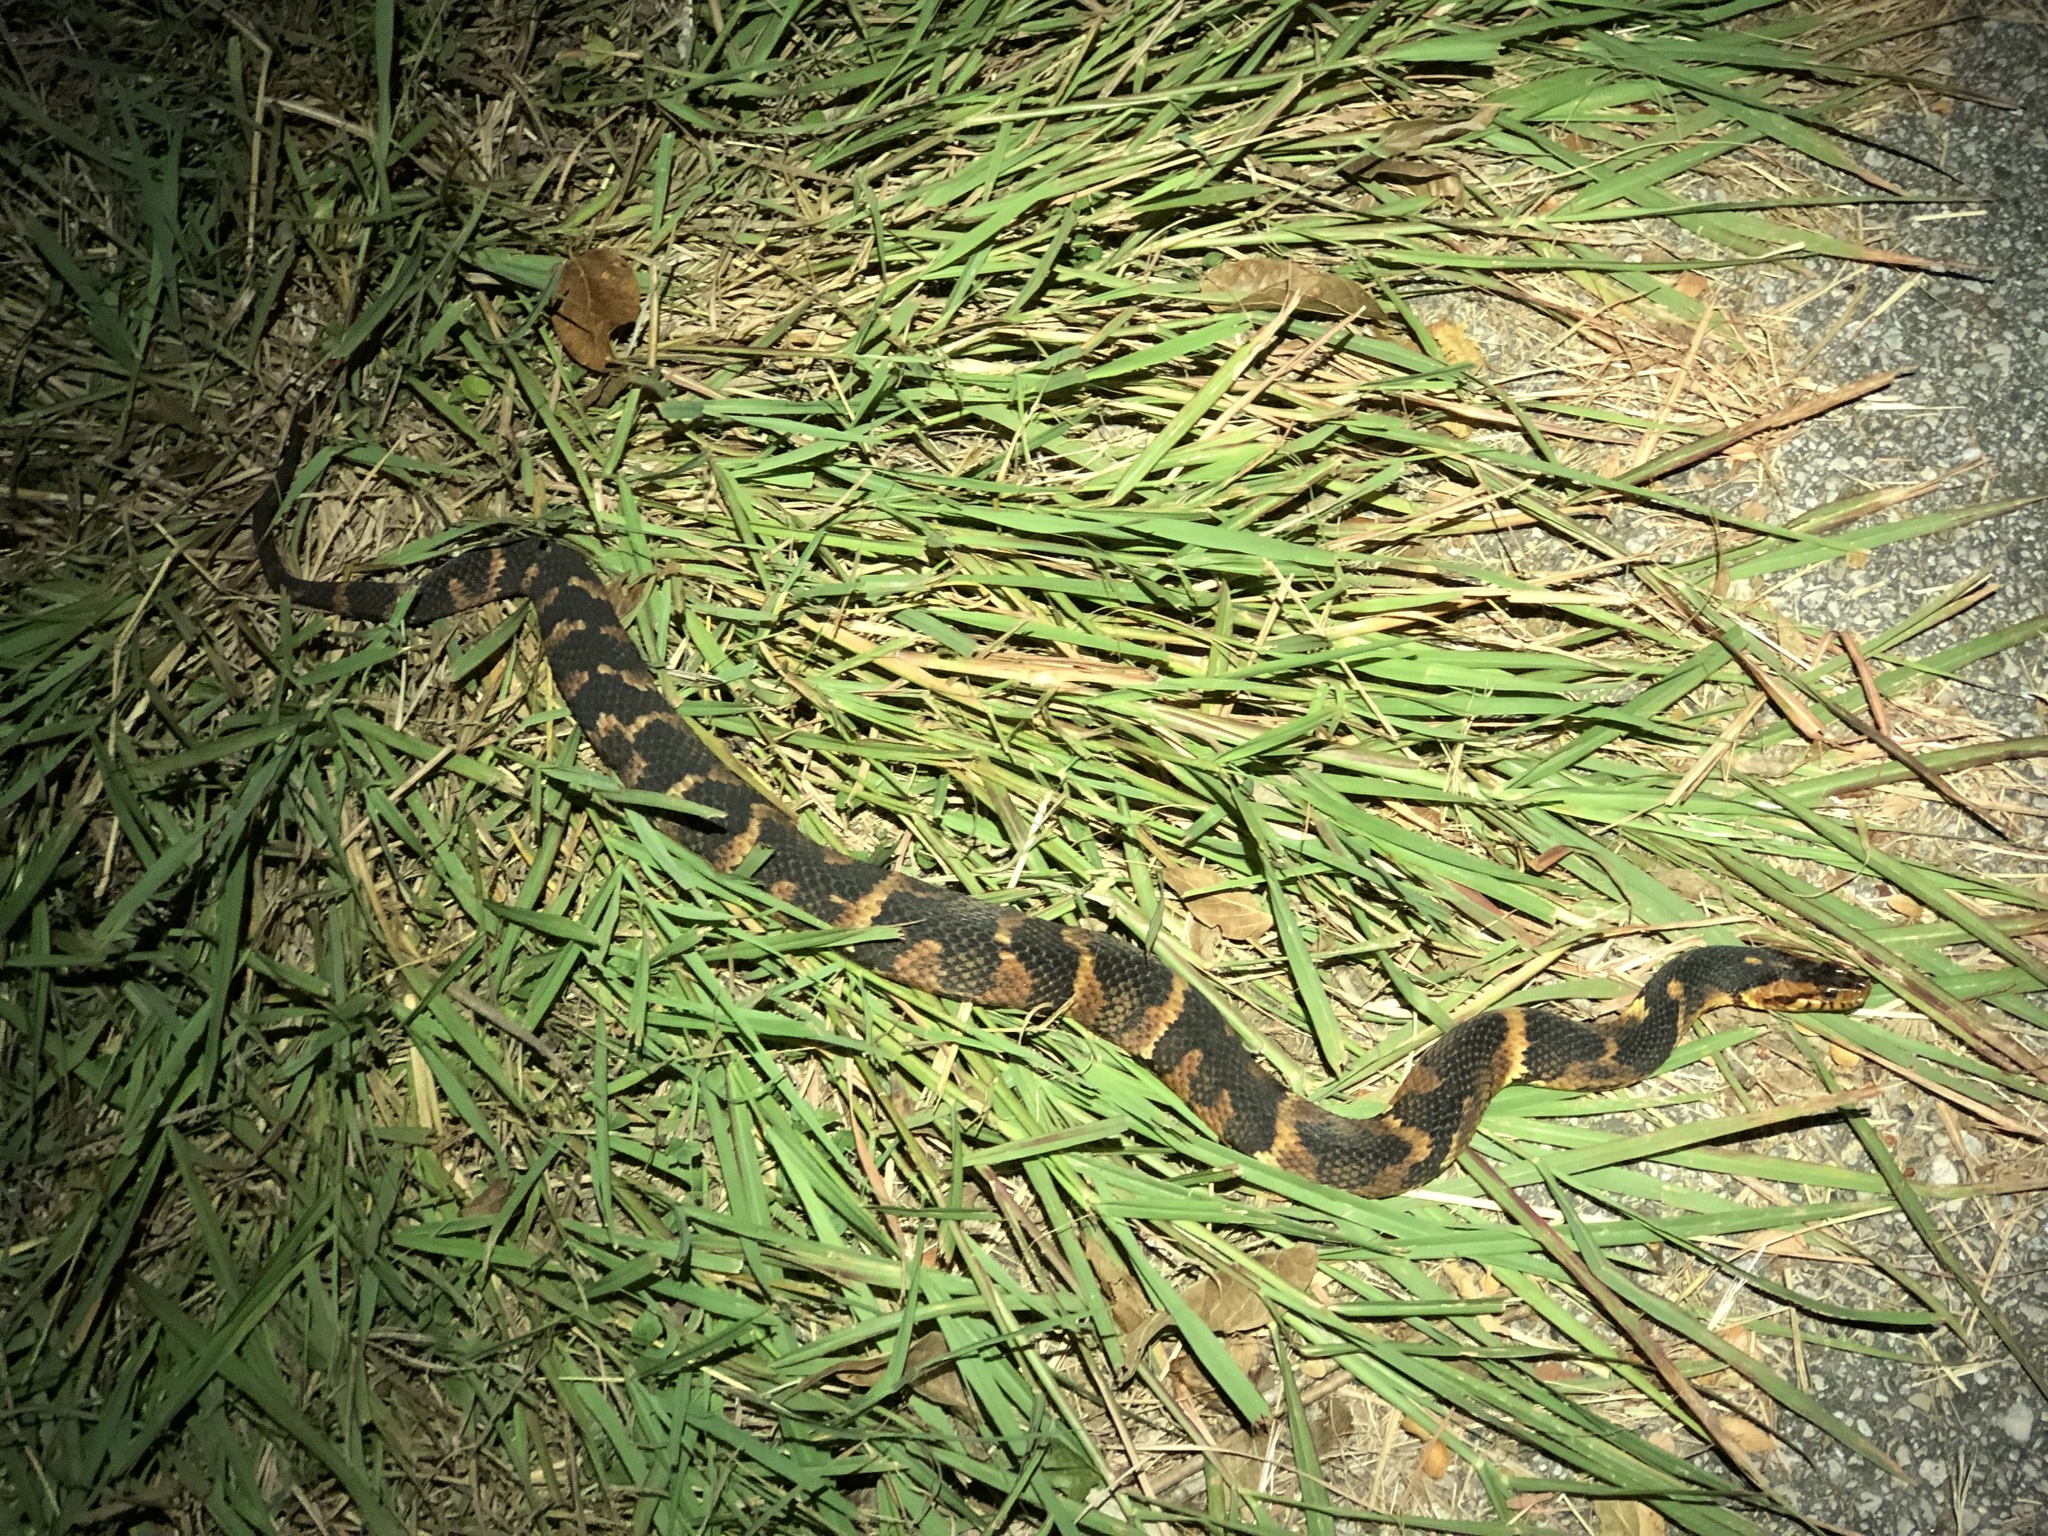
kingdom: Animalia
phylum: Chordata
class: Squamata
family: Colubridae
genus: Nerodia
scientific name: Nerodia fasciata
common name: Southern water snake
